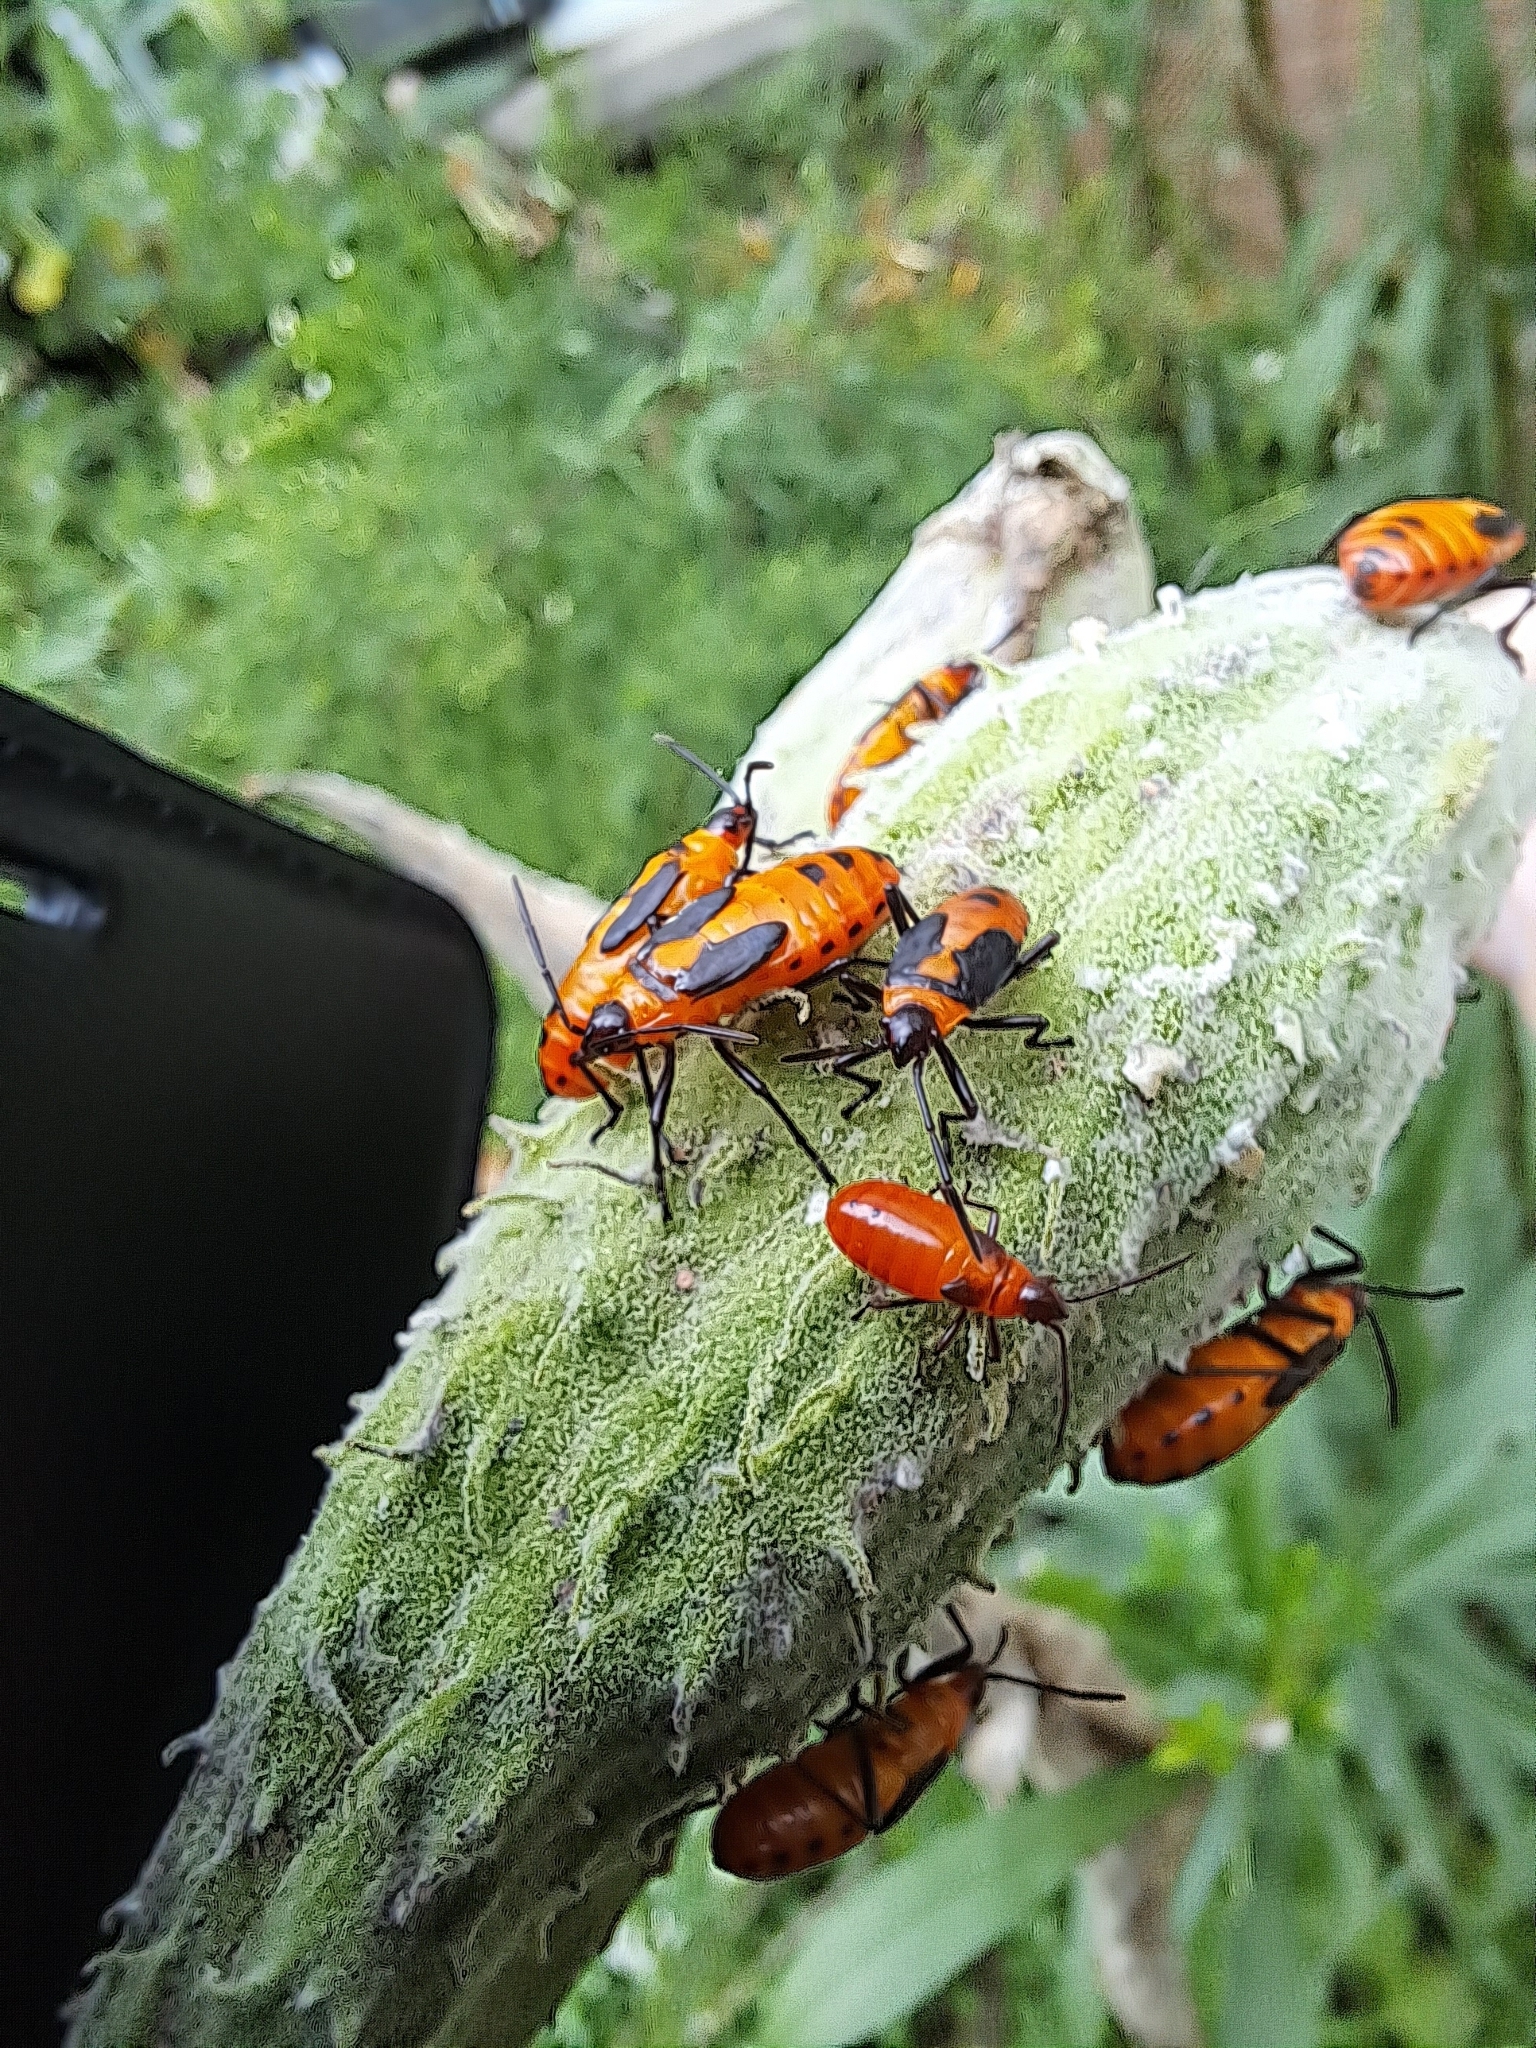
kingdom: Animalia
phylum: Arthropoda
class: Insecta
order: Hemiptera
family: Lygaeidae
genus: Oncopeltus
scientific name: Oncopeltus fasciatus
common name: Large milkweed bug
